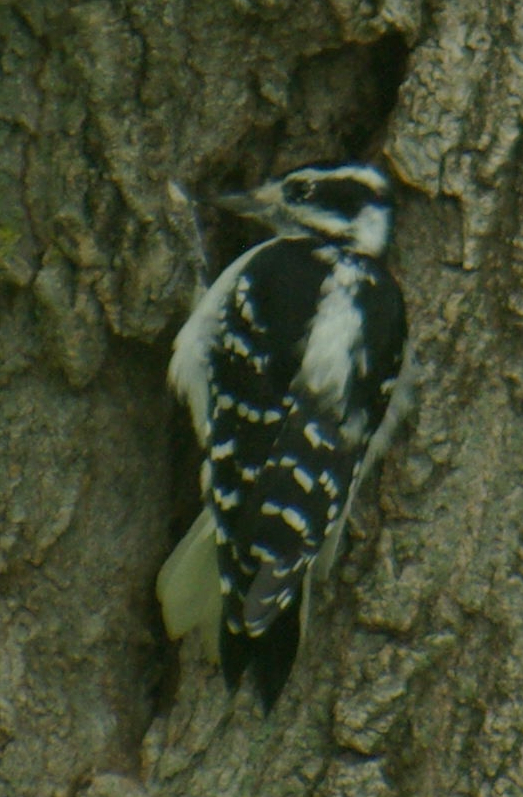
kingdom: Animalia
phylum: Chordata
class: Aves
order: Piciformes
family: Picidae
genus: Dryobates
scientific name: Dryobates pubescens
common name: Downy woodpecker
